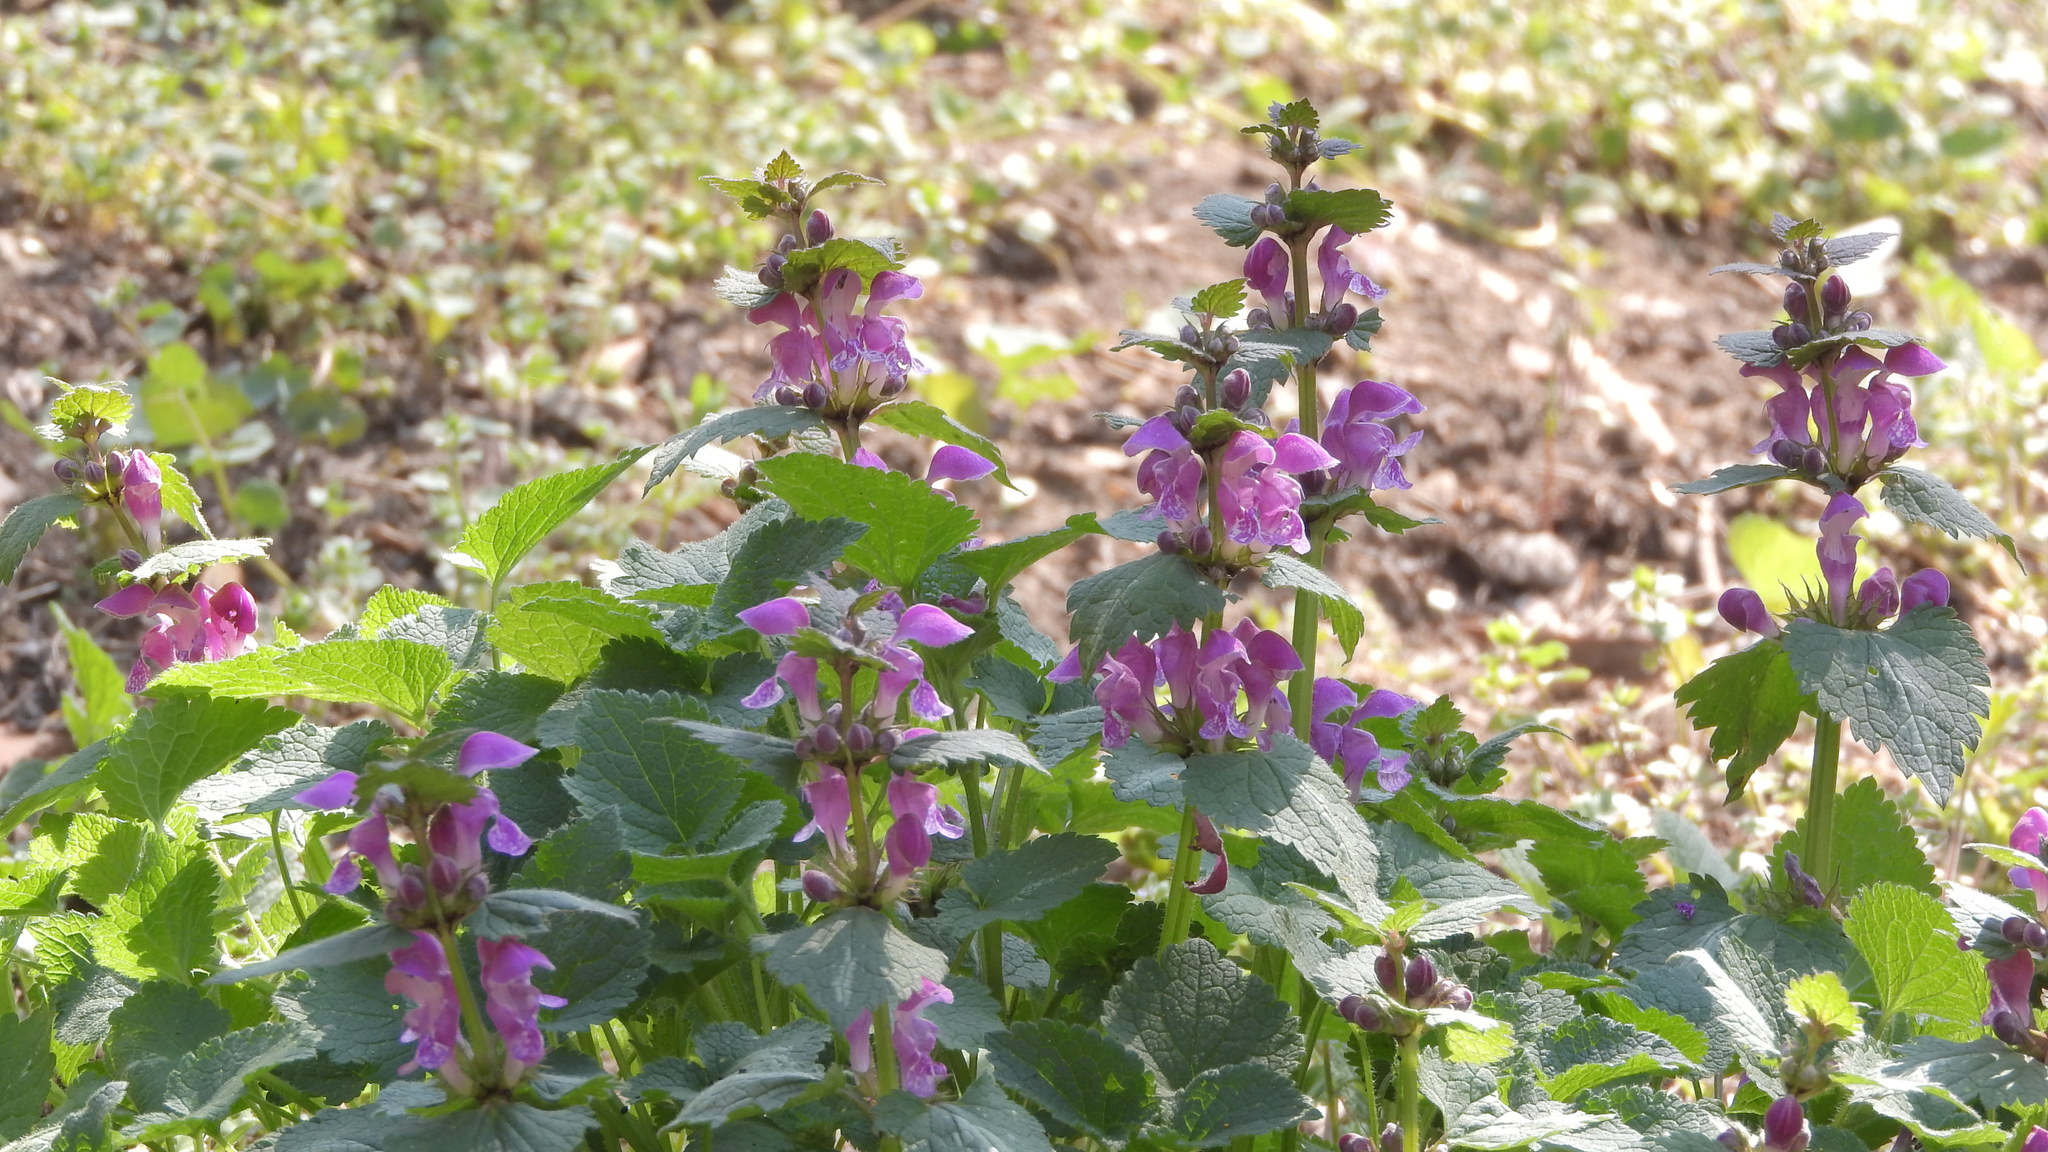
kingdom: Plantae
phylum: Tracheophyta
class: Magnoliopsida
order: Lamiales
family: Lamiaceae
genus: Lamium
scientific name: Lamium maculatum
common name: Spotted dead-nettle
